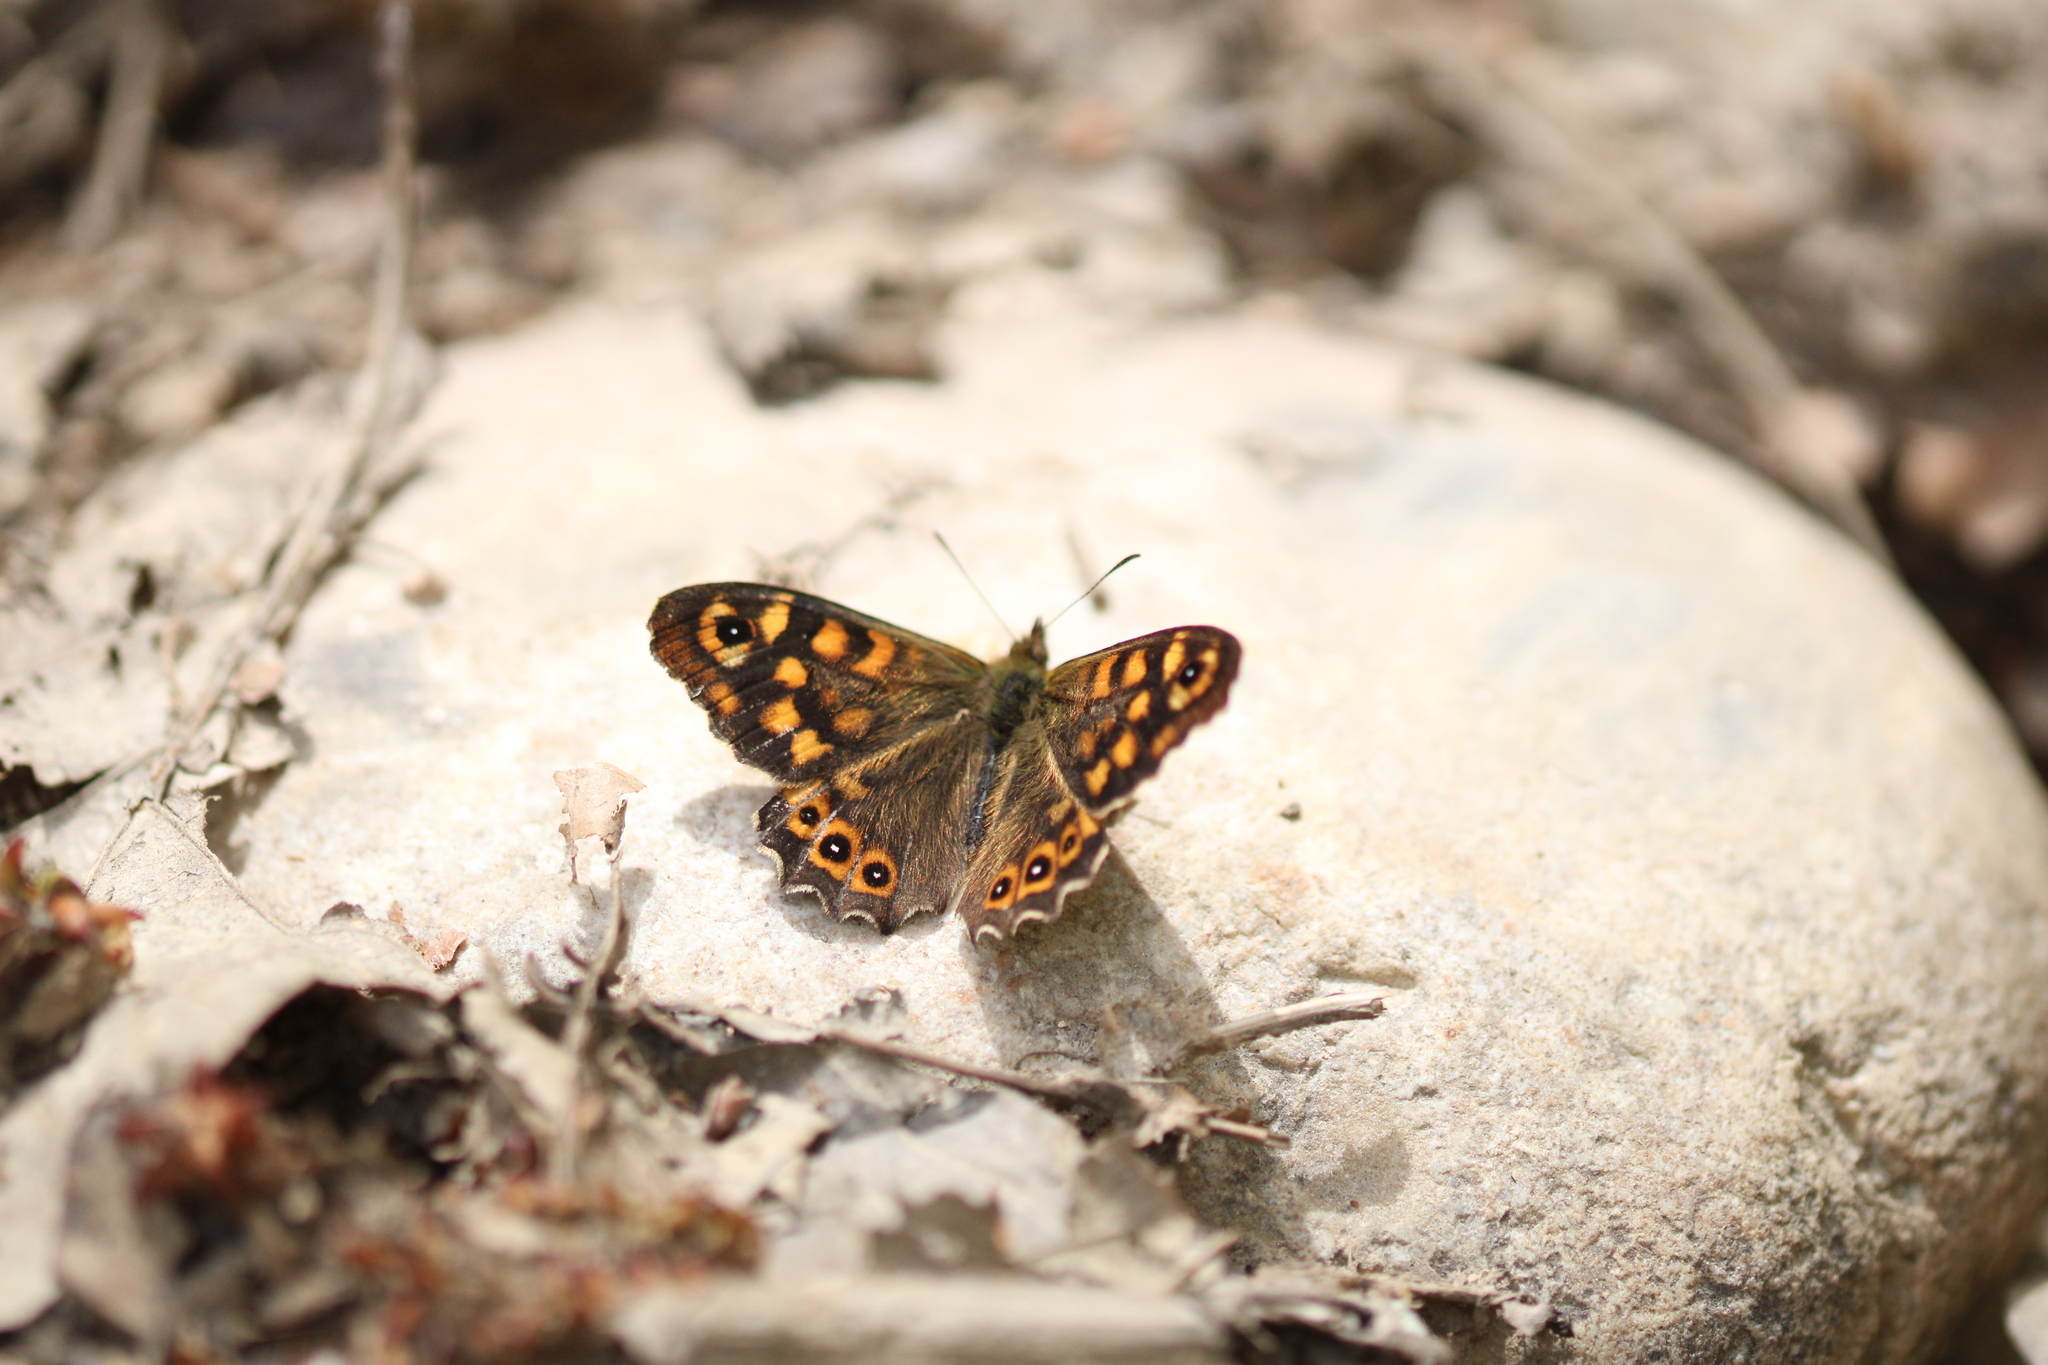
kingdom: Animalia
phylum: Arthropoda
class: Insecta
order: Lepidoptera
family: Nymphalidae
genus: Pararge
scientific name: Pararge aegeria
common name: Speckled wood
